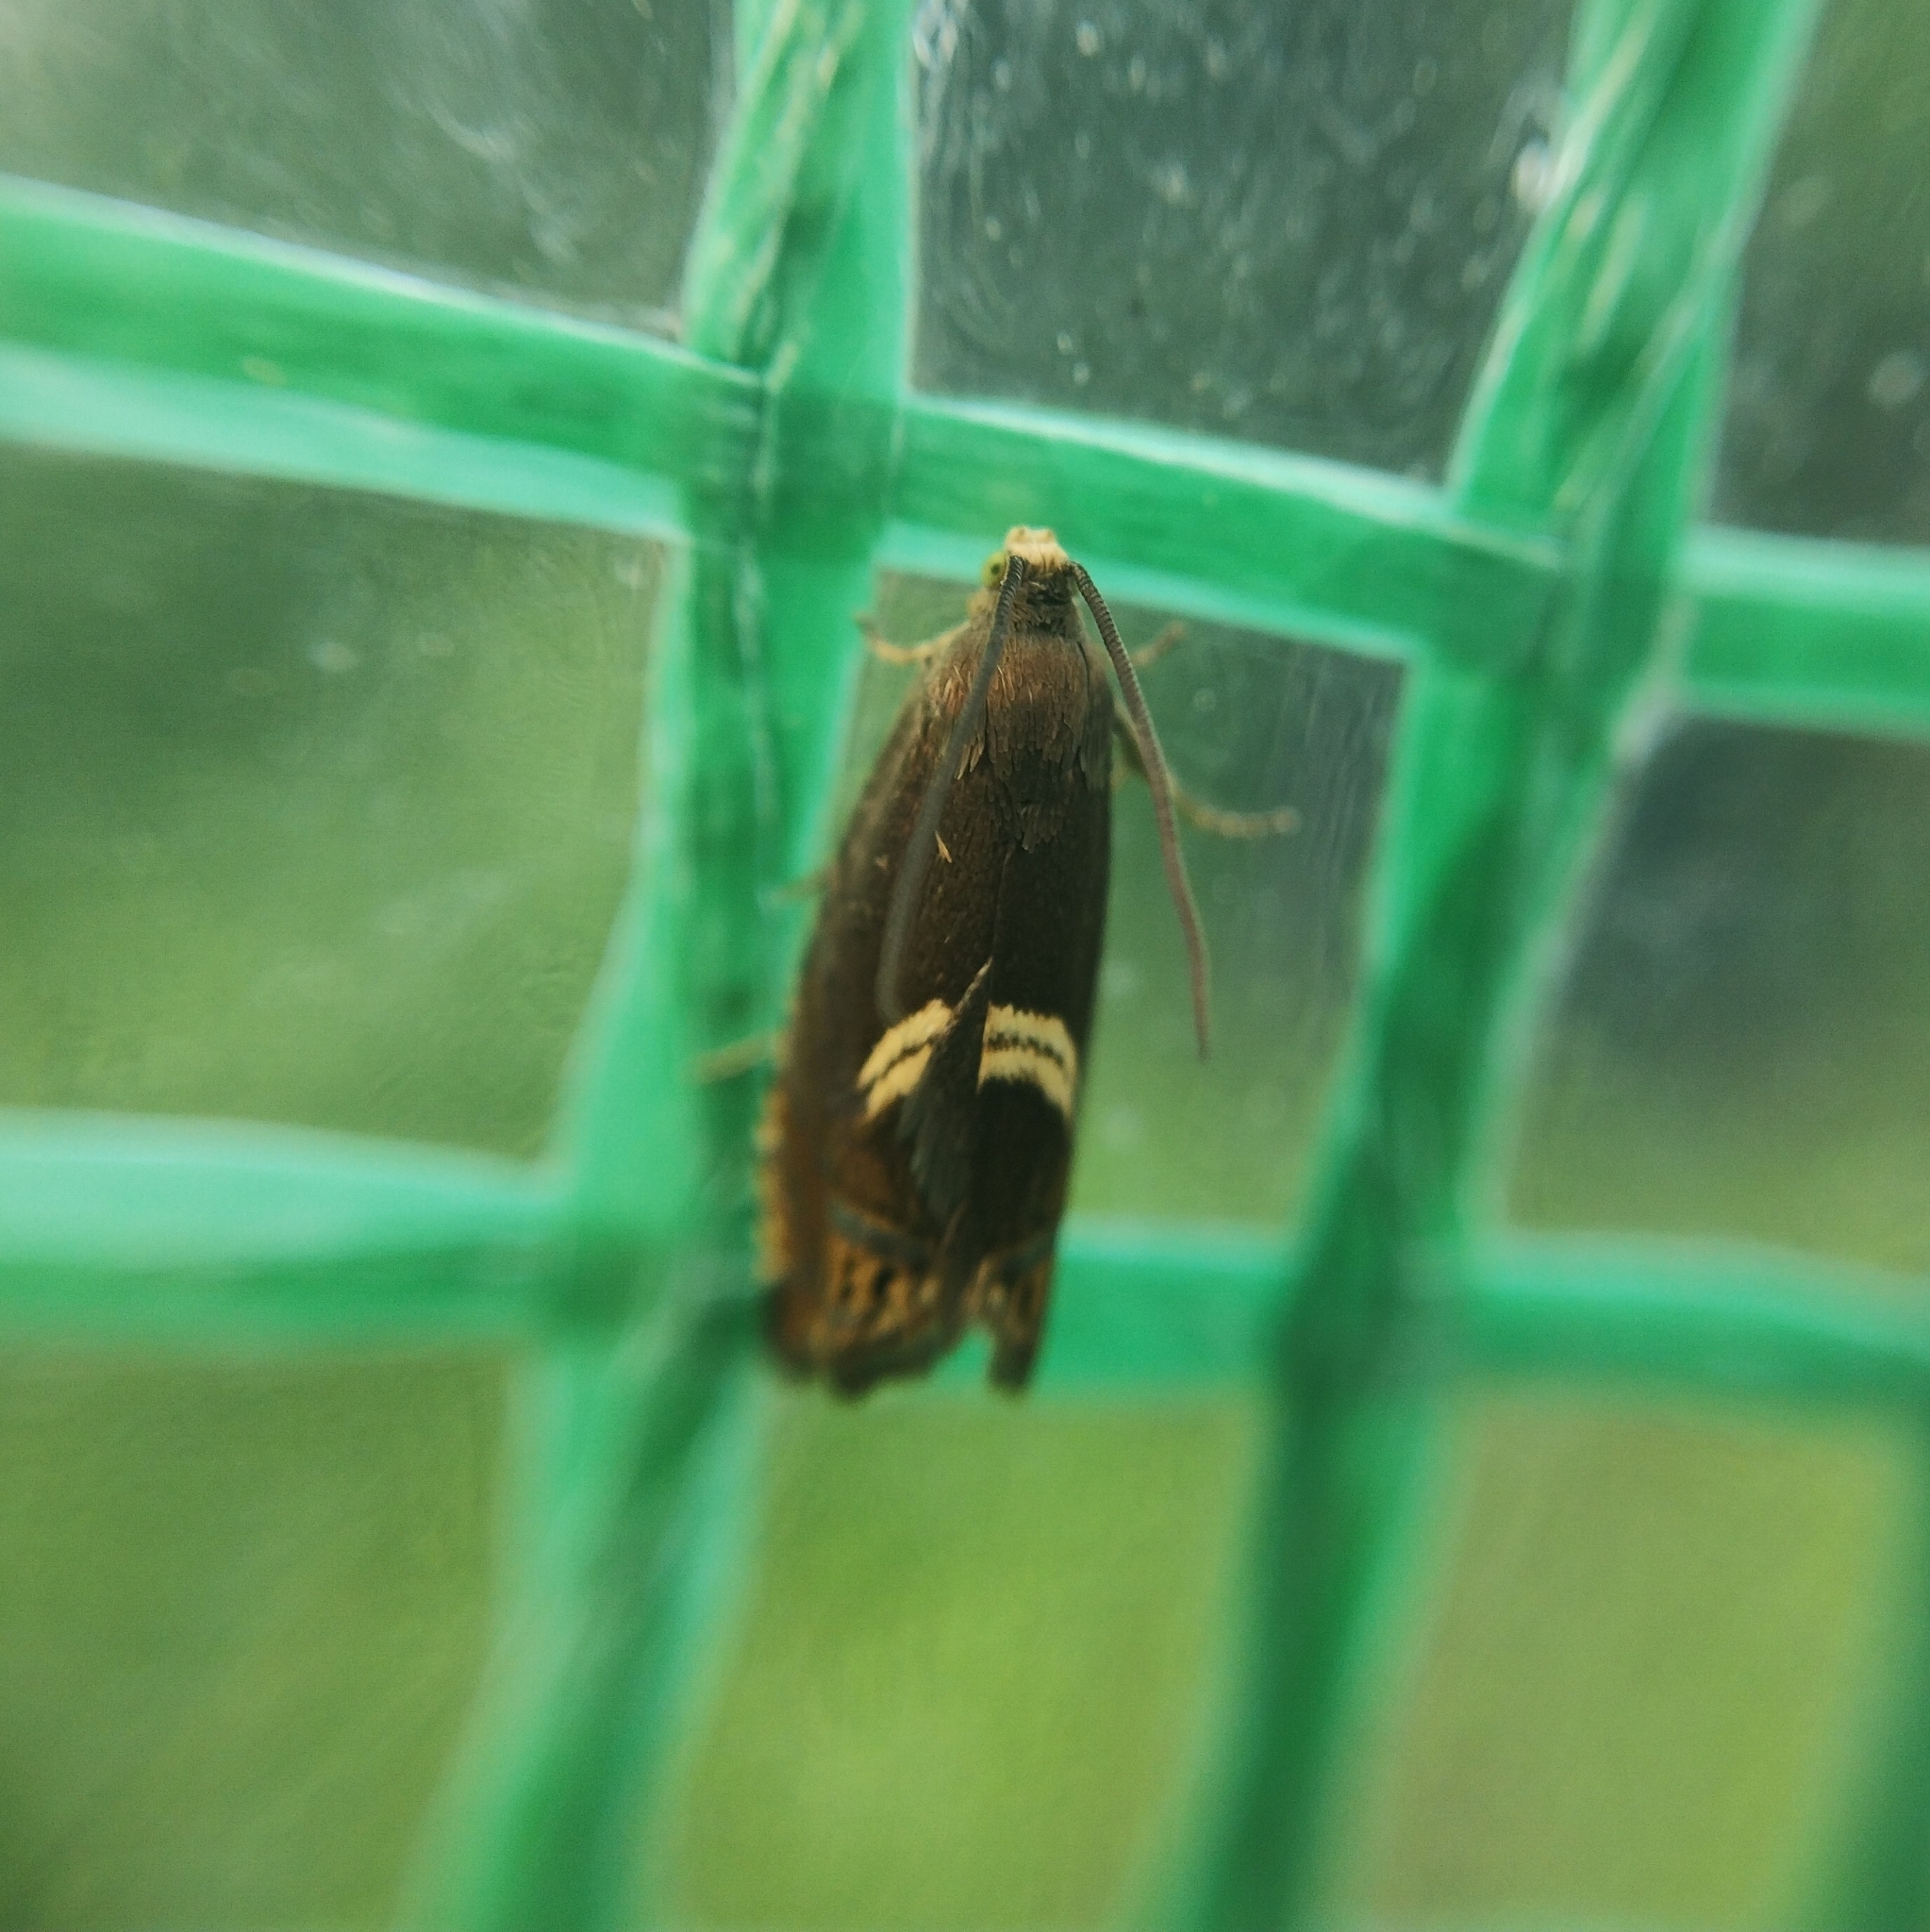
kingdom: Animalia
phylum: Arthropoda
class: Insecta
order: Lepidoptera
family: Tortricidae
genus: Grapholitini
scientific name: Grapholitini
